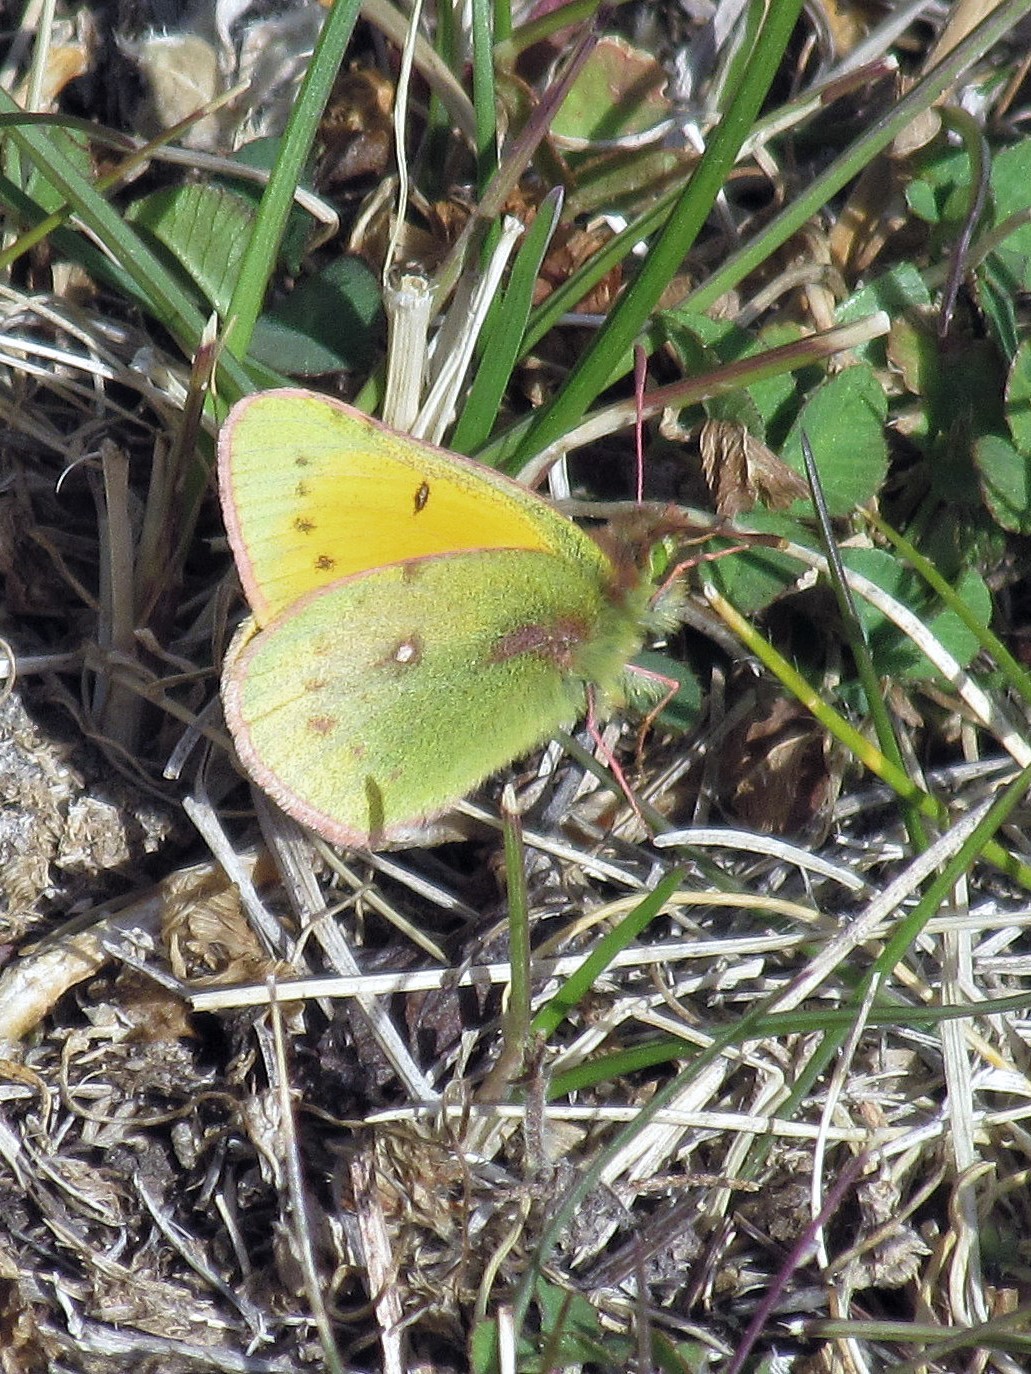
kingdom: Animalia
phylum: Arthropoda
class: Insecta
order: Lepidoptera
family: Pieridae
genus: Colias
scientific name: Colias vauthierii
